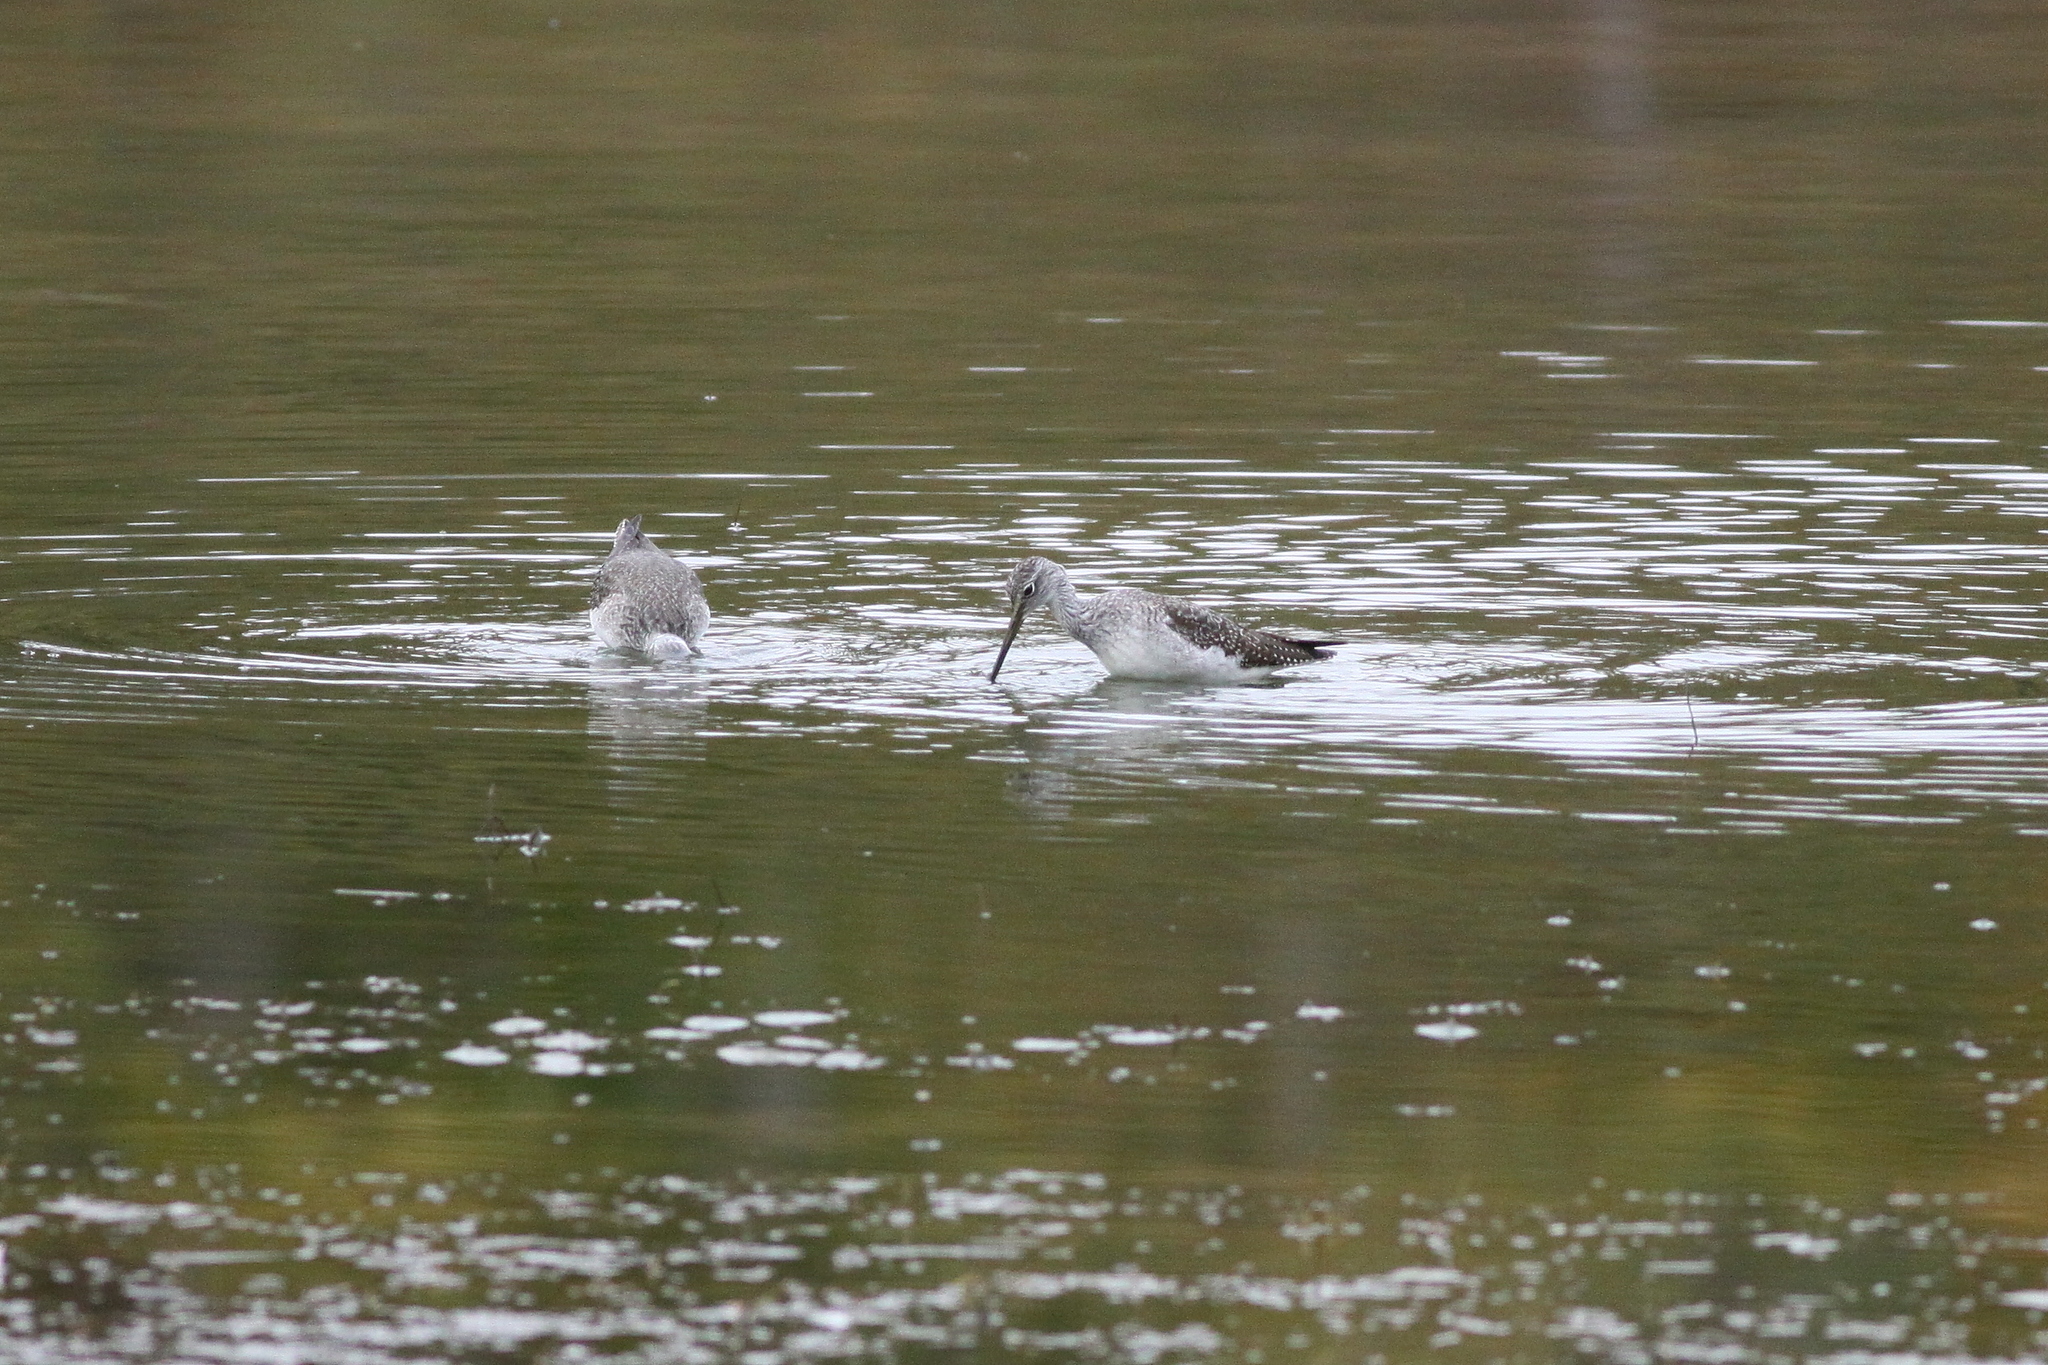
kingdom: Animalia
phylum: Chordata
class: Aves
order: Charadriiformes
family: Scolopacidae
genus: Tringa
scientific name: Tringa melanoleuca
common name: Greater yellowlegs
